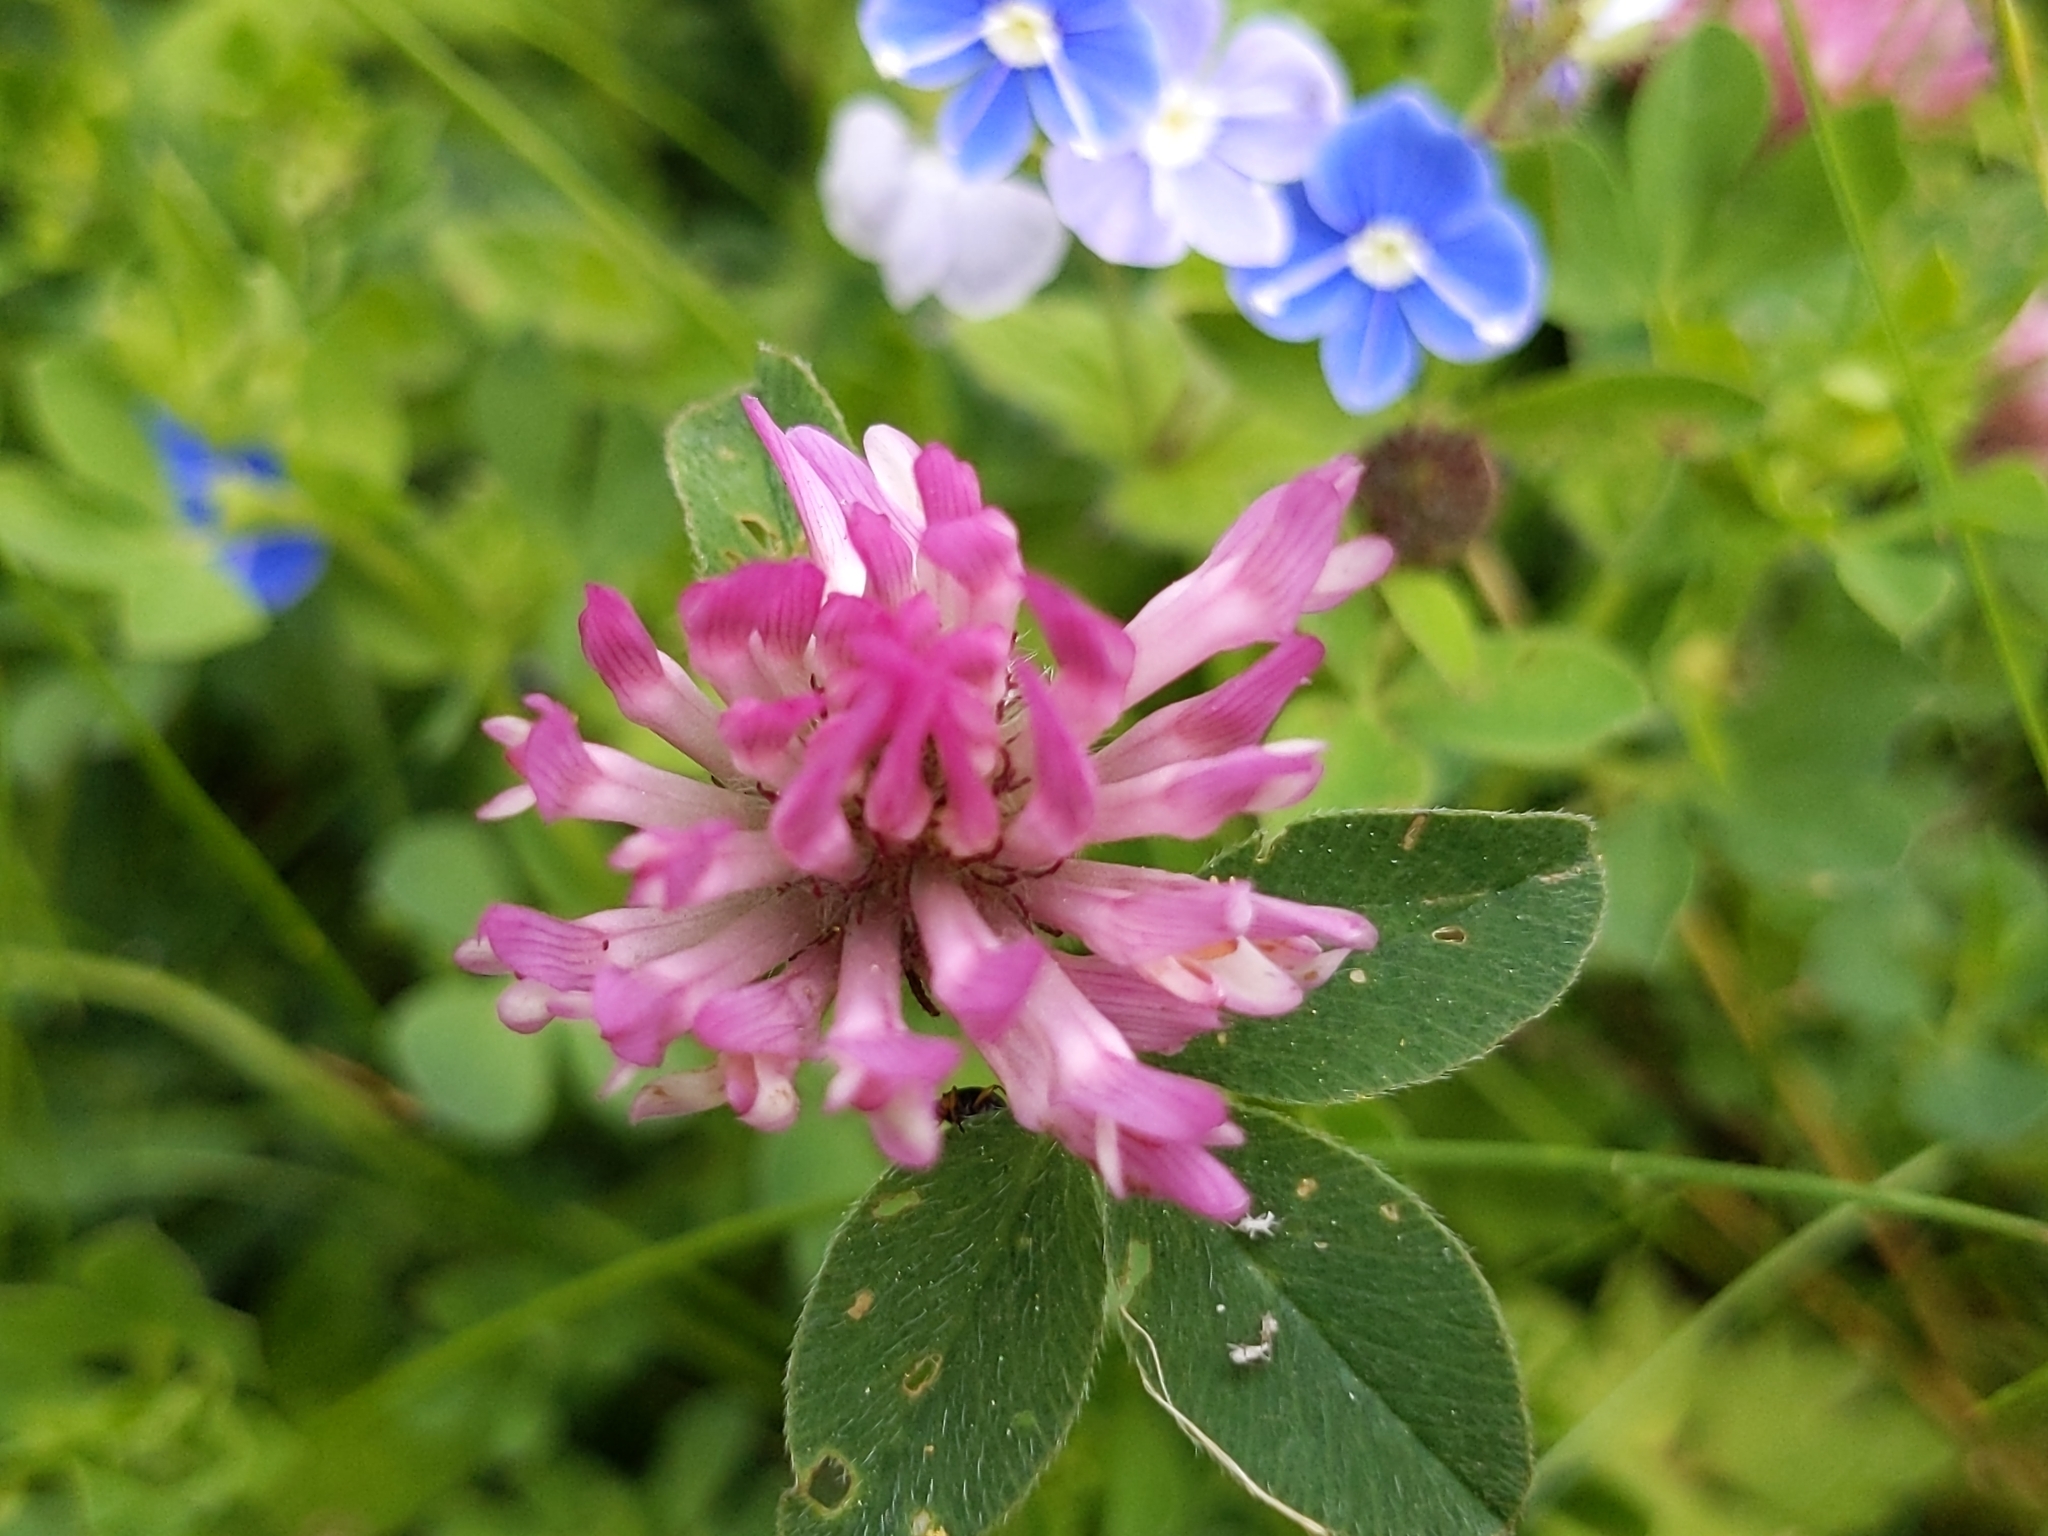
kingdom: Plantae
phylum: Tracheophyta
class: Magnoliopsida
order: Fabales
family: Fabaceae
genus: Trifolium
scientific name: Trifolium pratense
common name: Red clover
